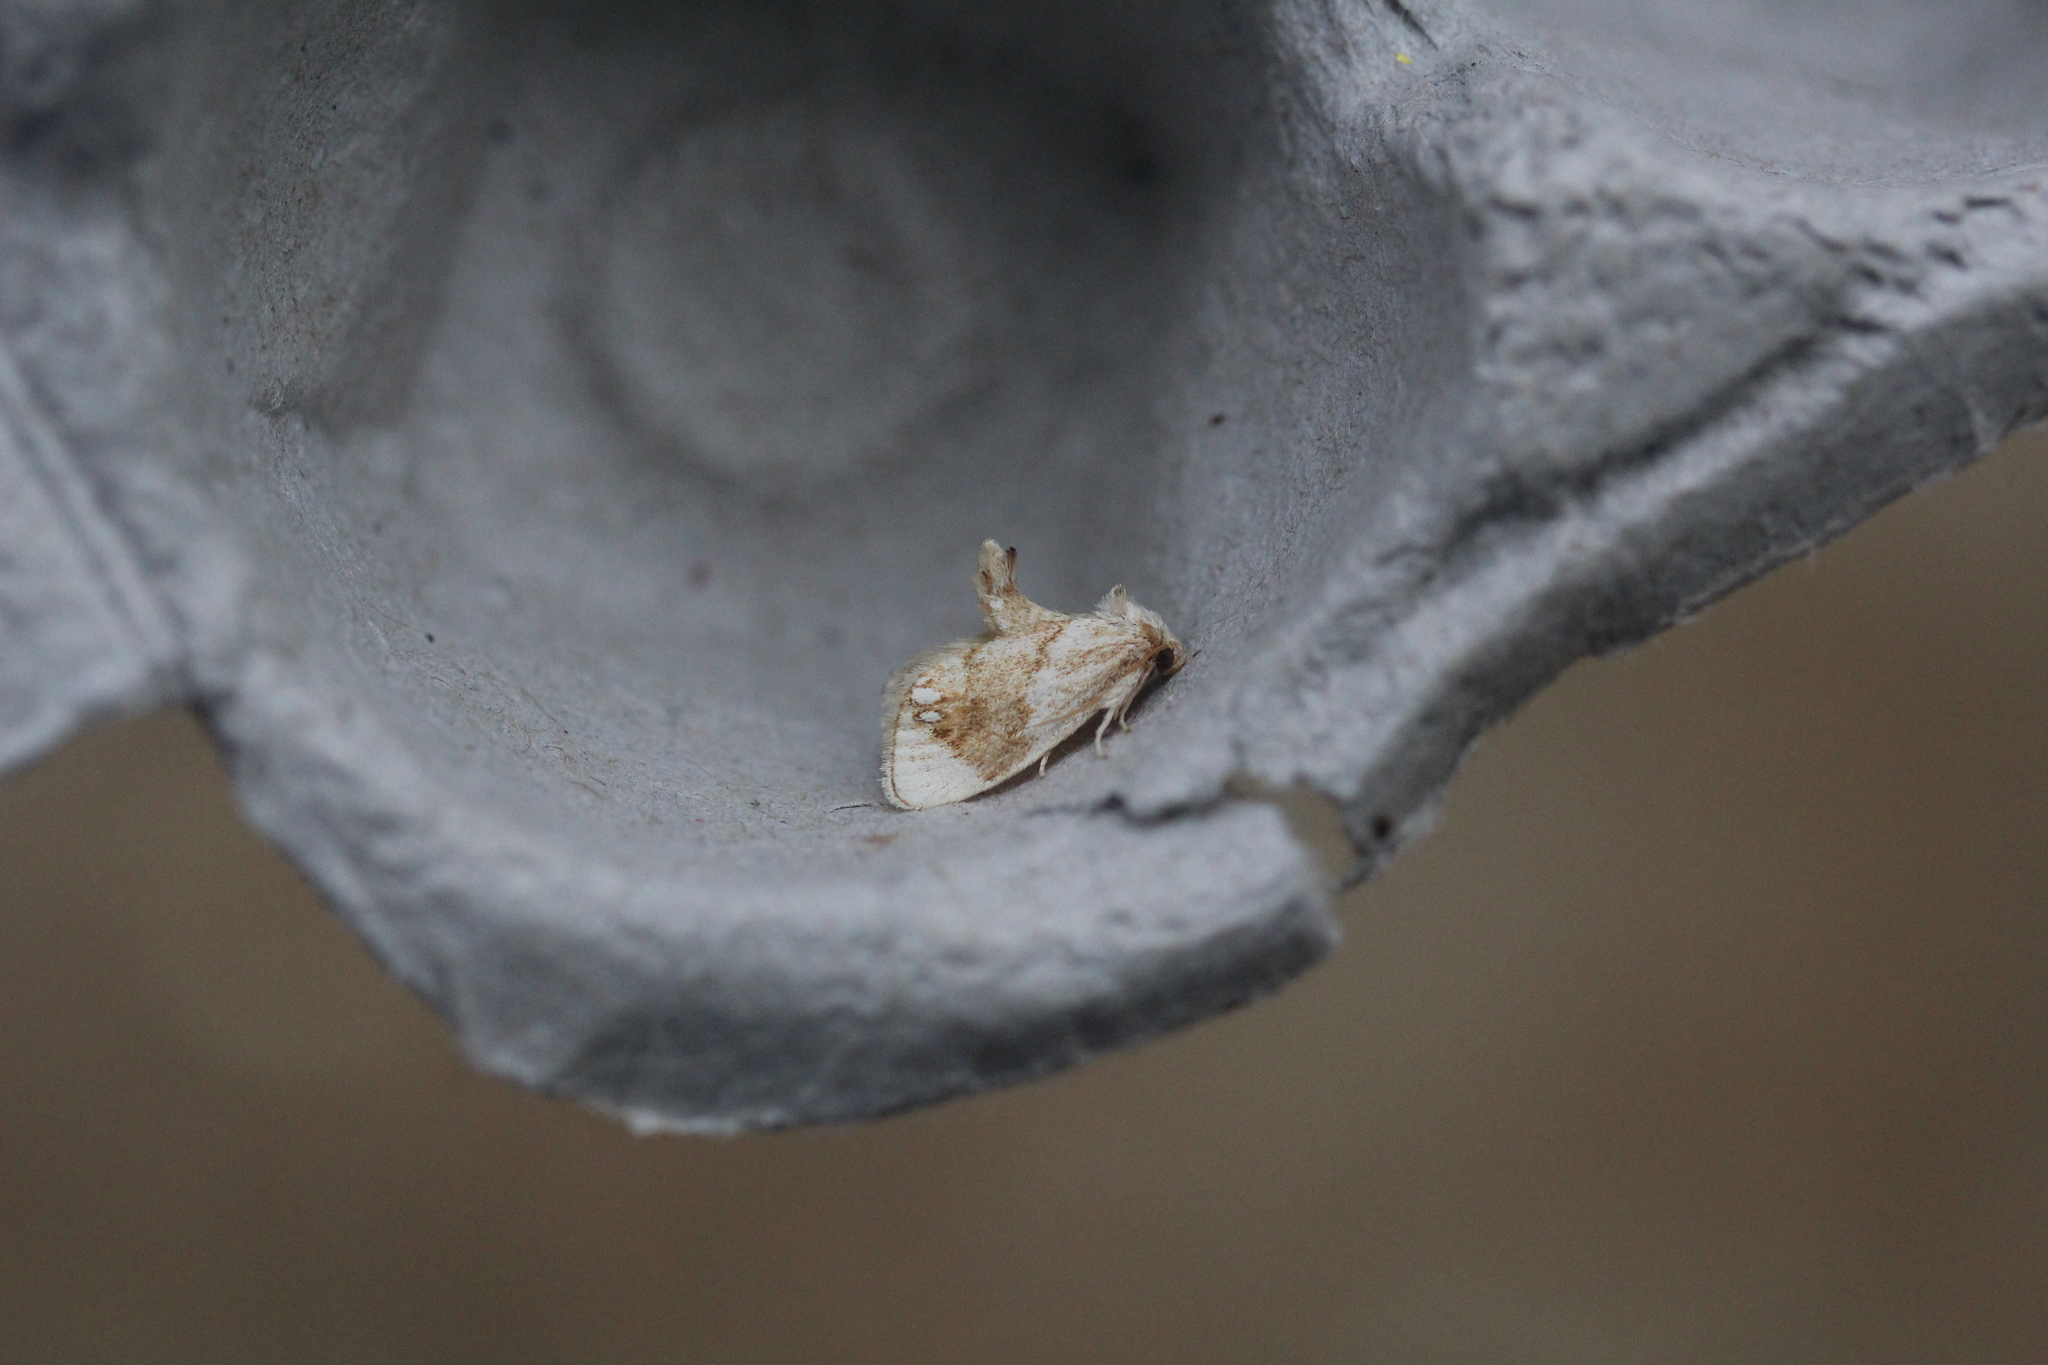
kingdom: Animalia
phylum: Arthropoda
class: Insecta
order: Lepidoptera
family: Limacodidae
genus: Packardia
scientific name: Packardia geminata
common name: Jeweled tailed slug moth
